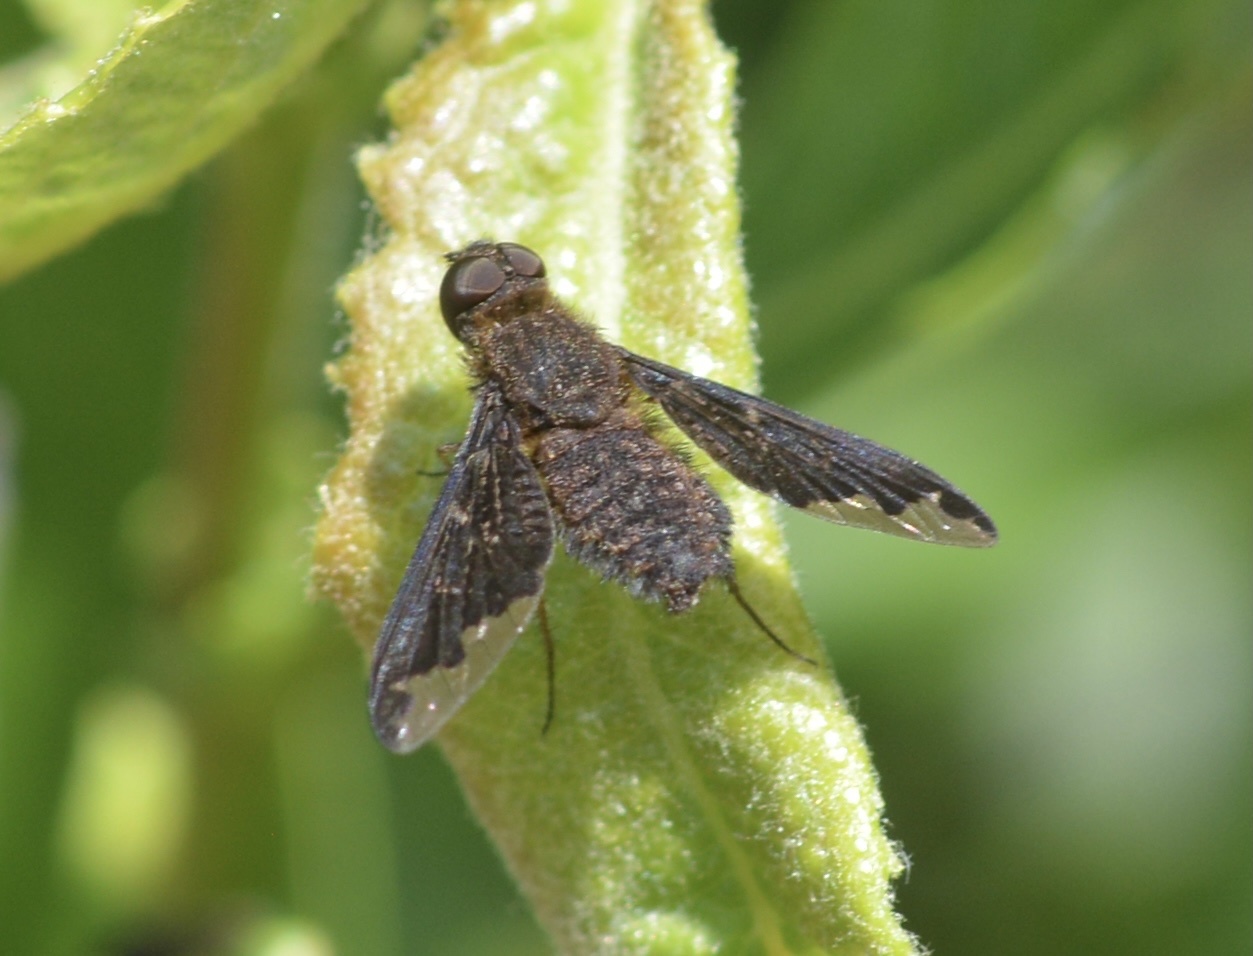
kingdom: Animalia
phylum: Arthropoda
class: Insecta
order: Diptera
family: Bombyliidae
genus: Hemipenthes
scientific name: Hemipenthes sinuosus
